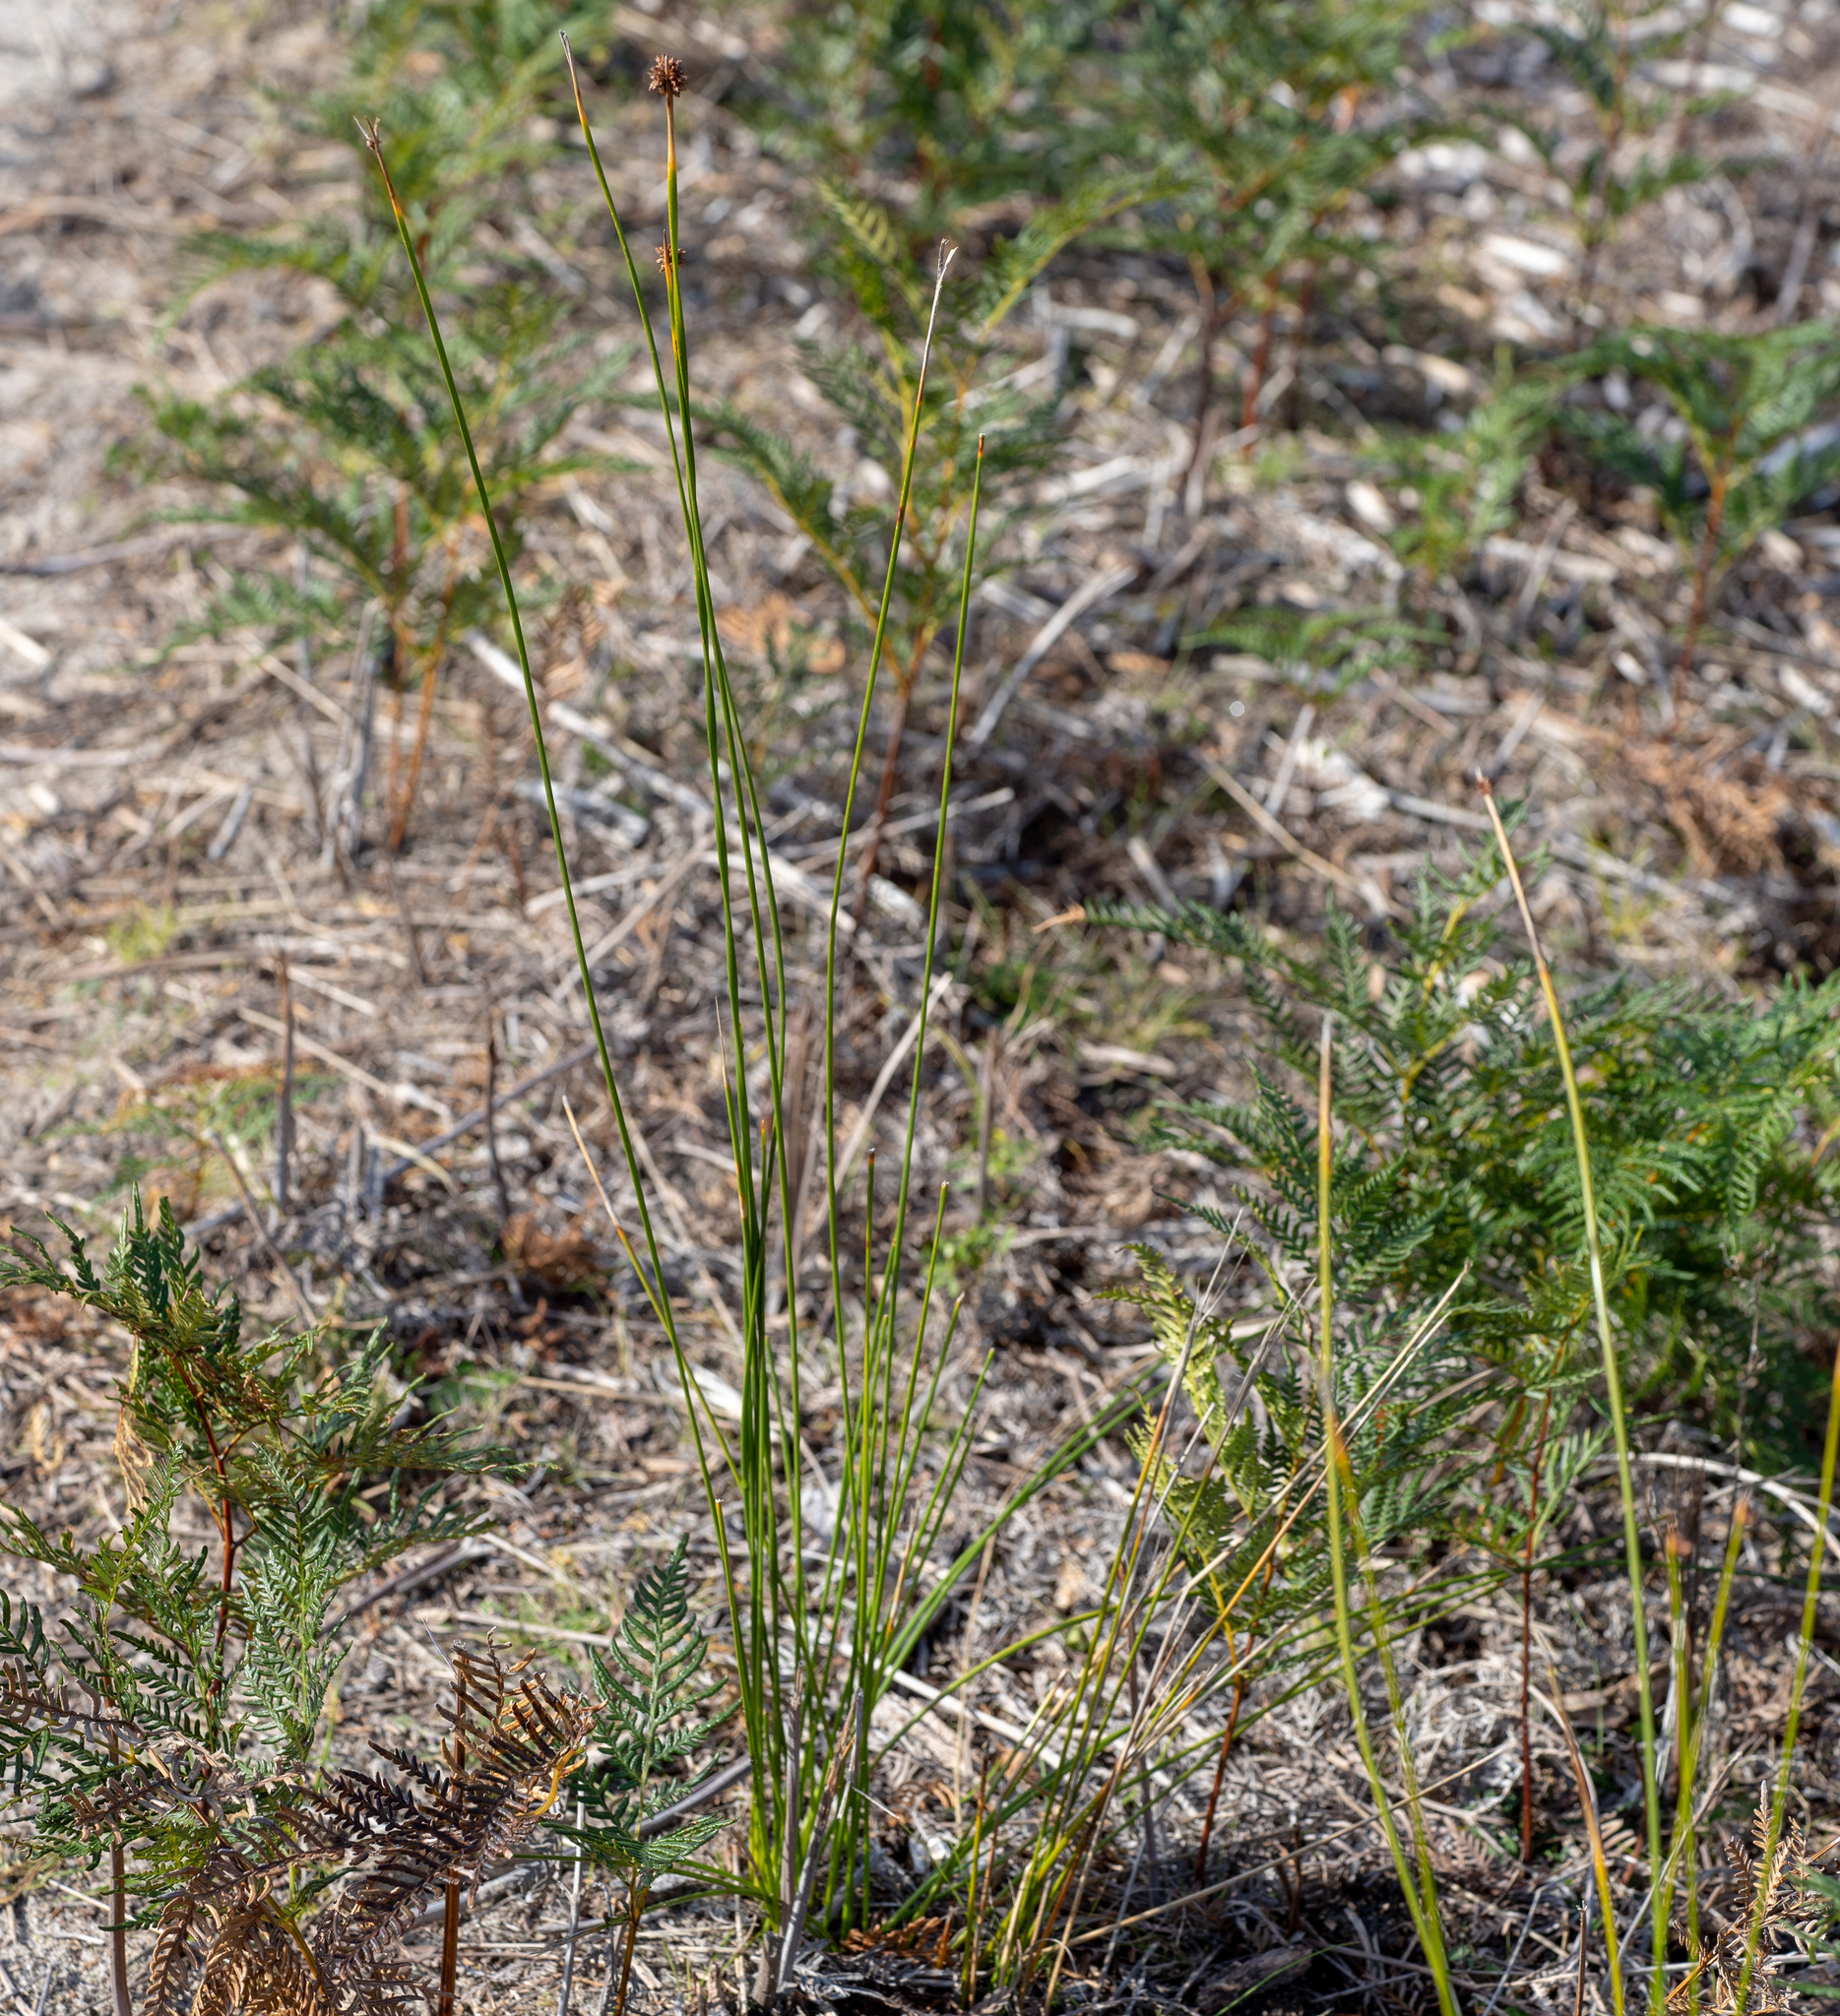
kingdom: Plantae
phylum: Tracheophyta
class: Liliopsida
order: Poales
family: Cyperaceae
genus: Ficinia
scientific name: Ficinia nodosa
